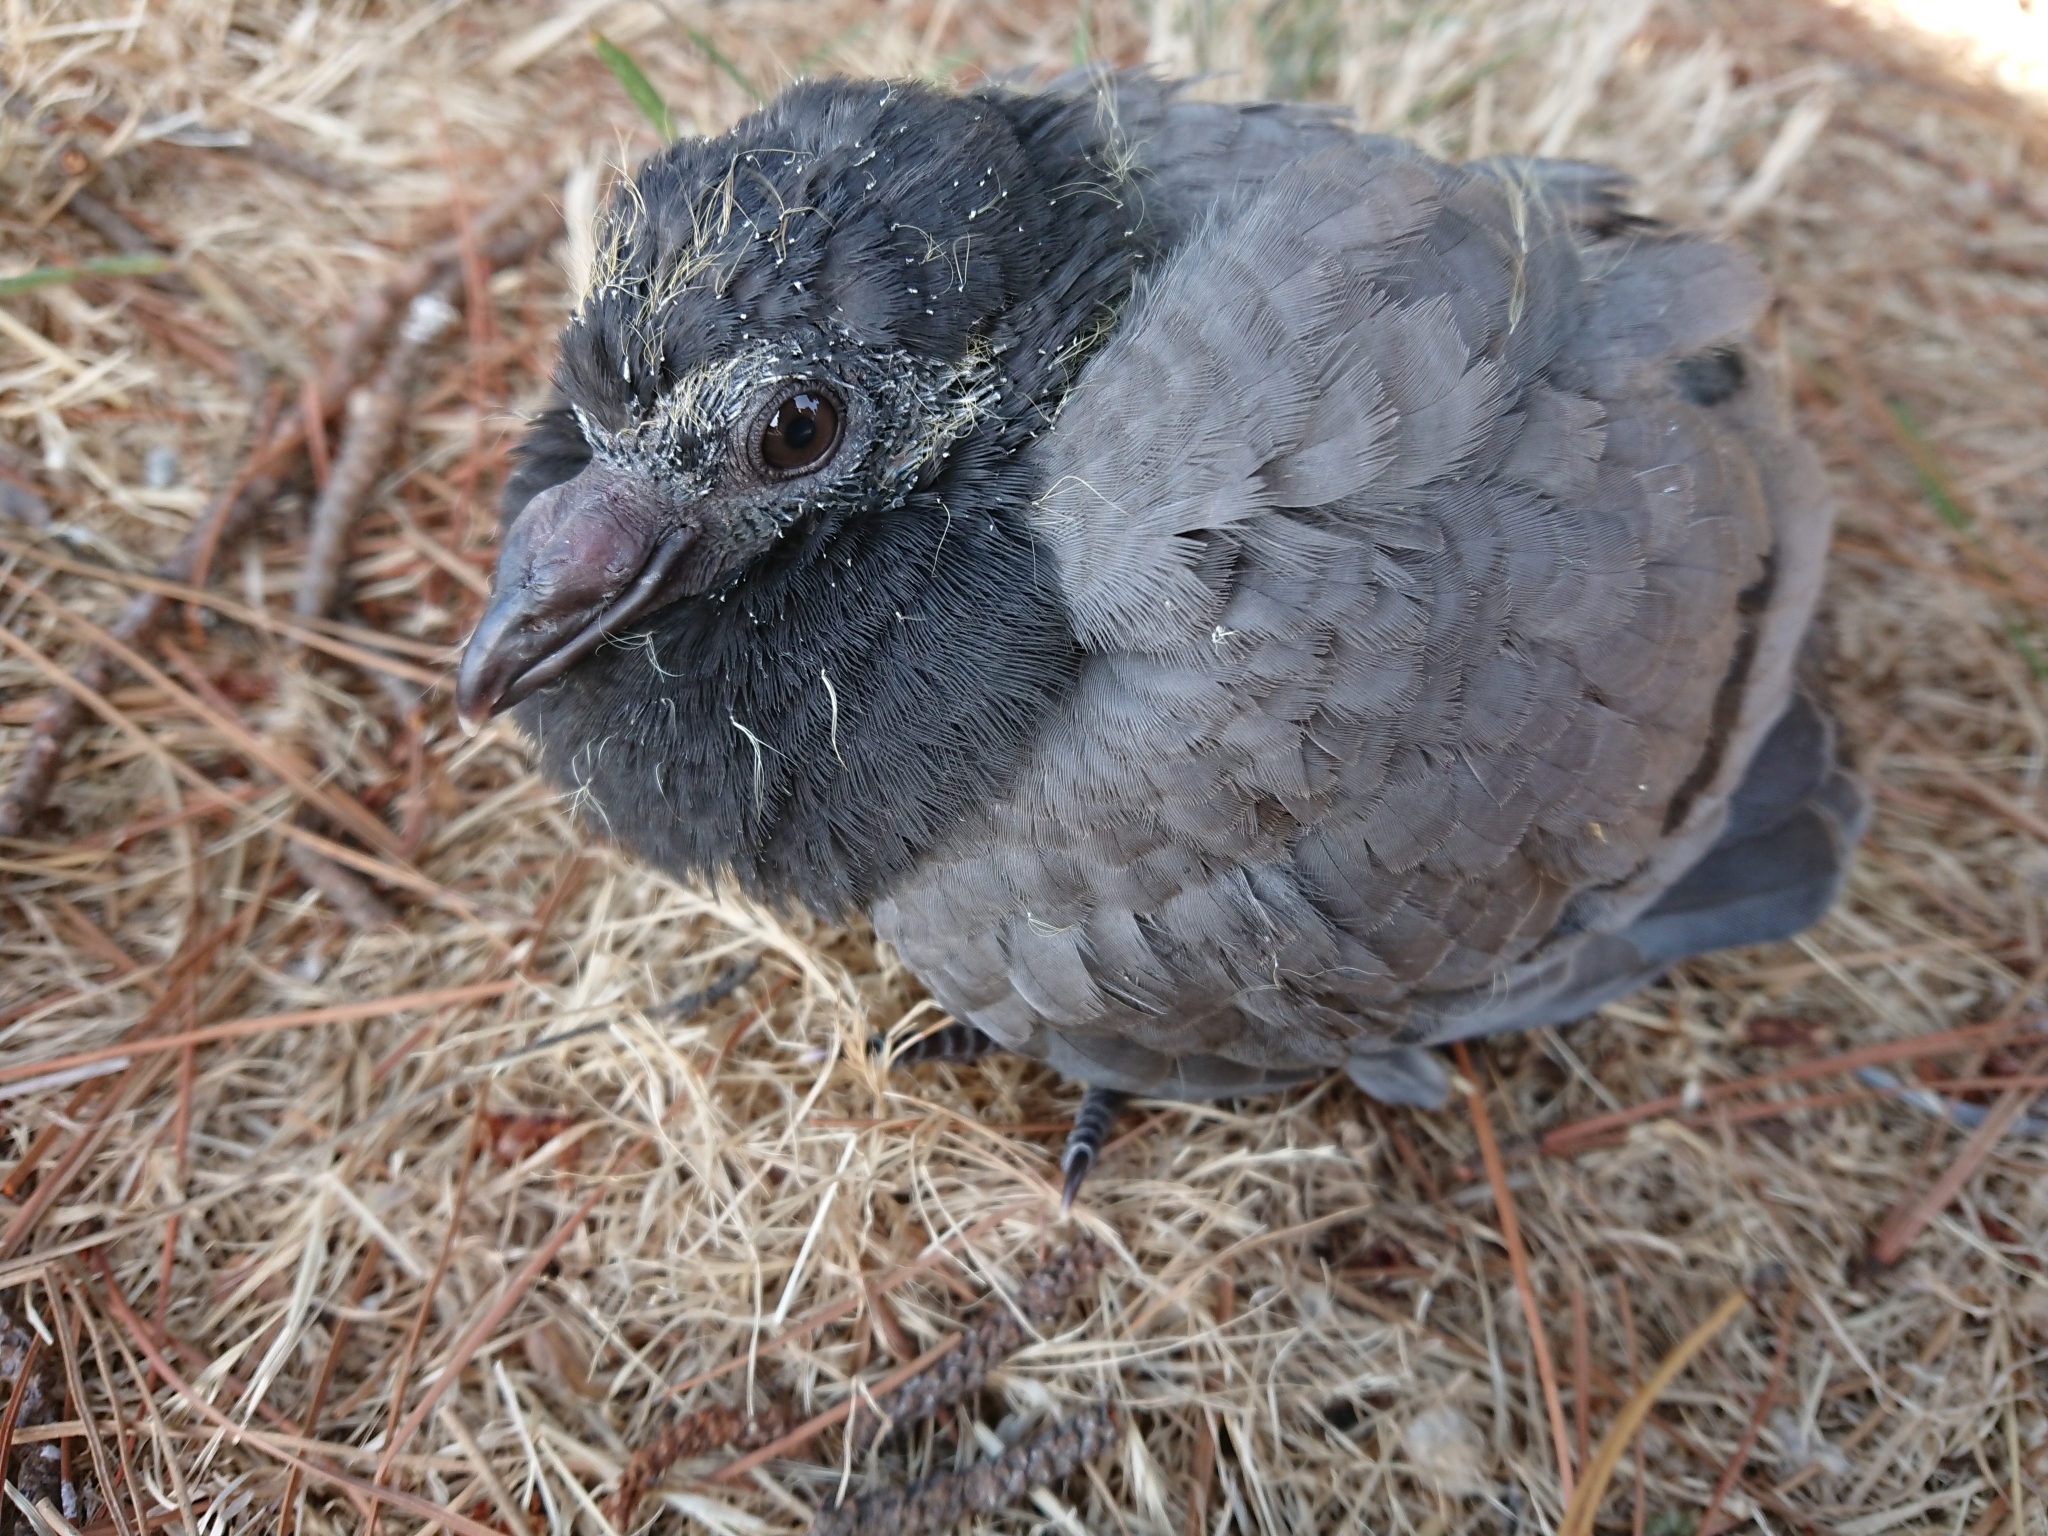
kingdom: Animalia
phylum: Chordata
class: Aves
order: Columbiformes
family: Columbidae
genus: Columba
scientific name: Columba livia
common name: Rock pigeon
